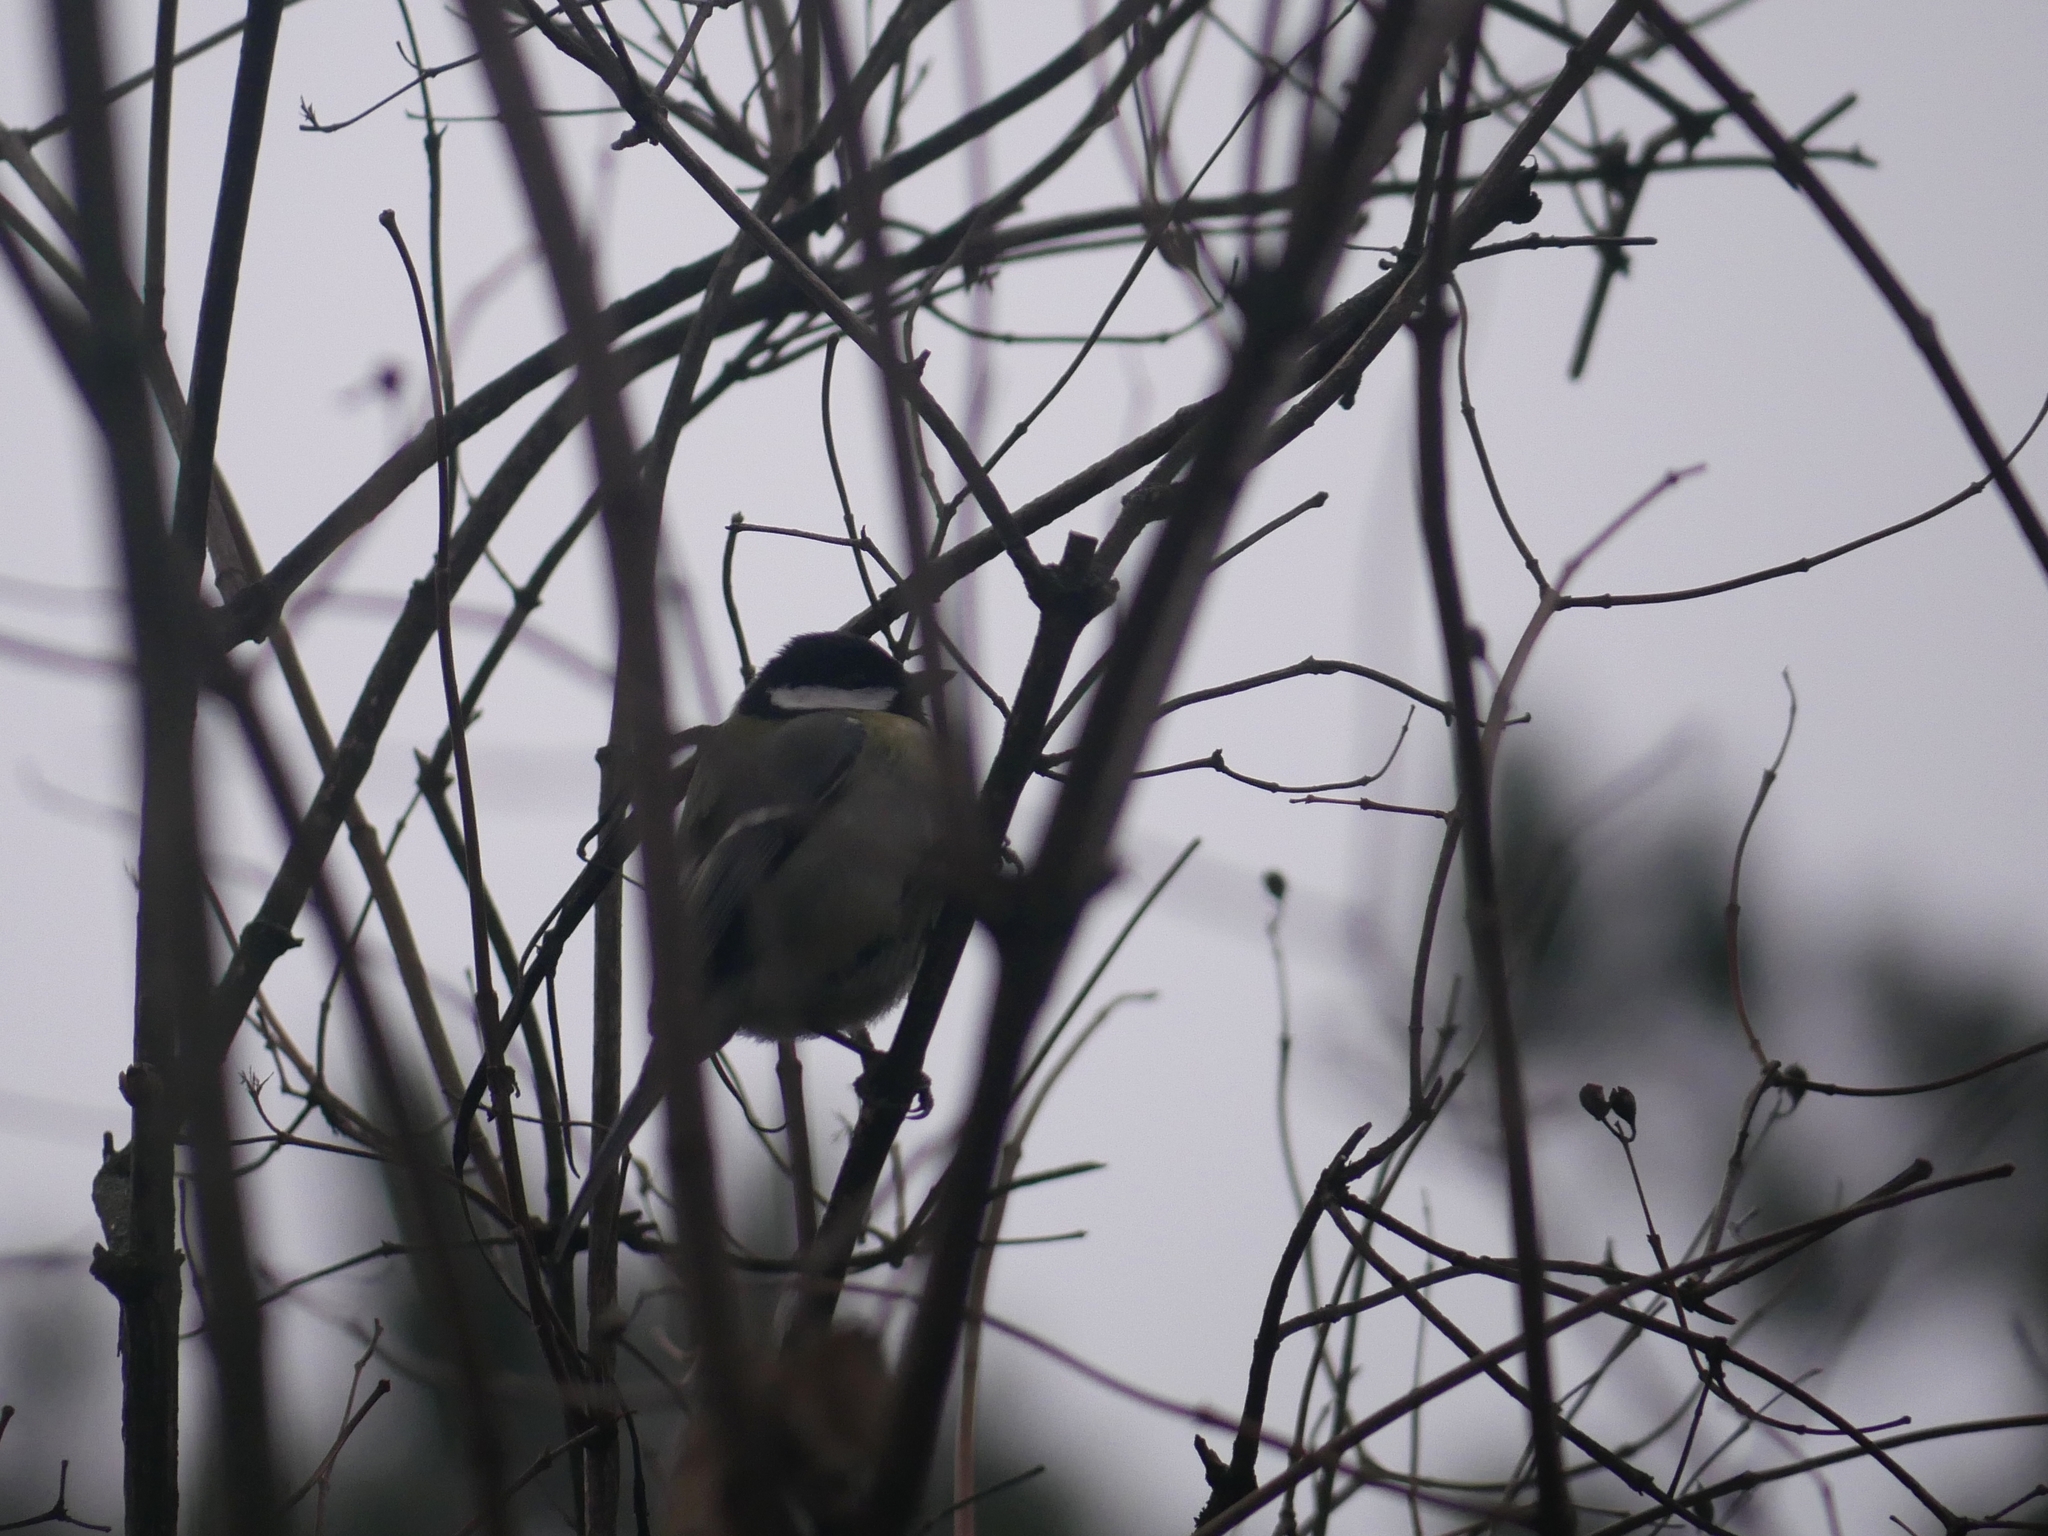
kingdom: Animalia
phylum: Chordata
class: Aves
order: Passeriformes
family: Paridae
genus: Parus
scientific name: Parus major
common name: Great tit
